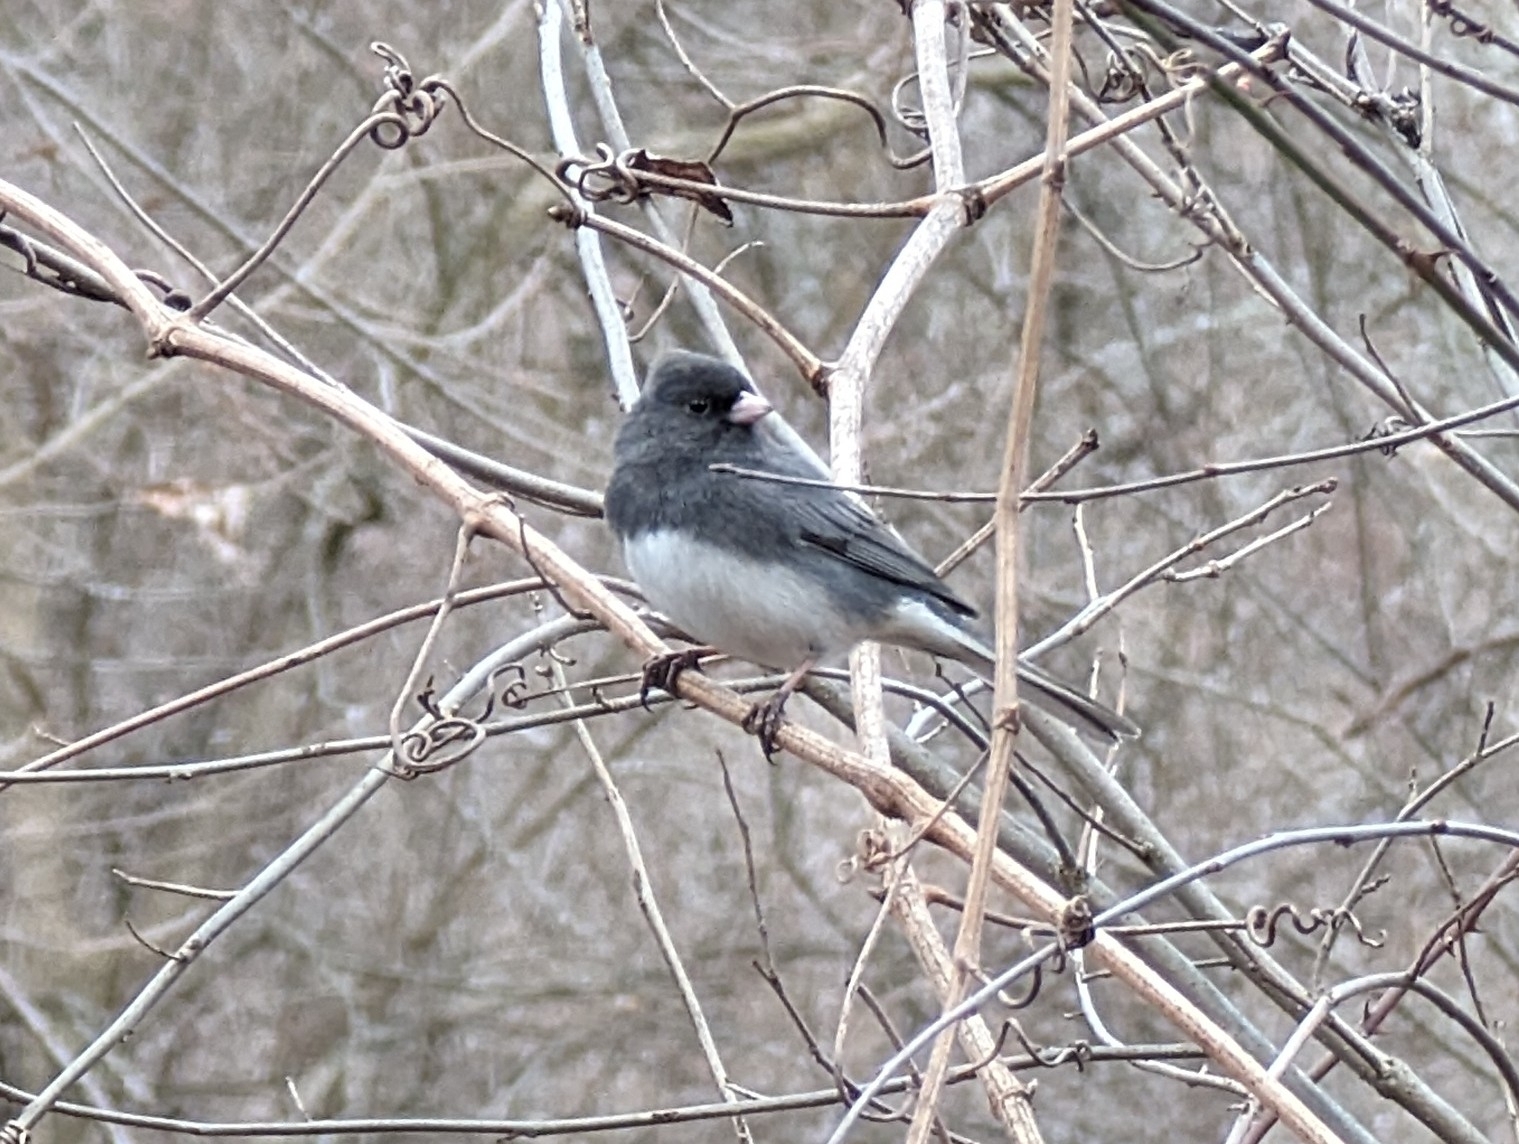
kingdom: Animalia
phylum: Chordata
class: Aves
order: Passeriformes
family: Passerellidae
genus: Junco
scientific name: Junco hyemalis
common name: Dark-eyed junco
